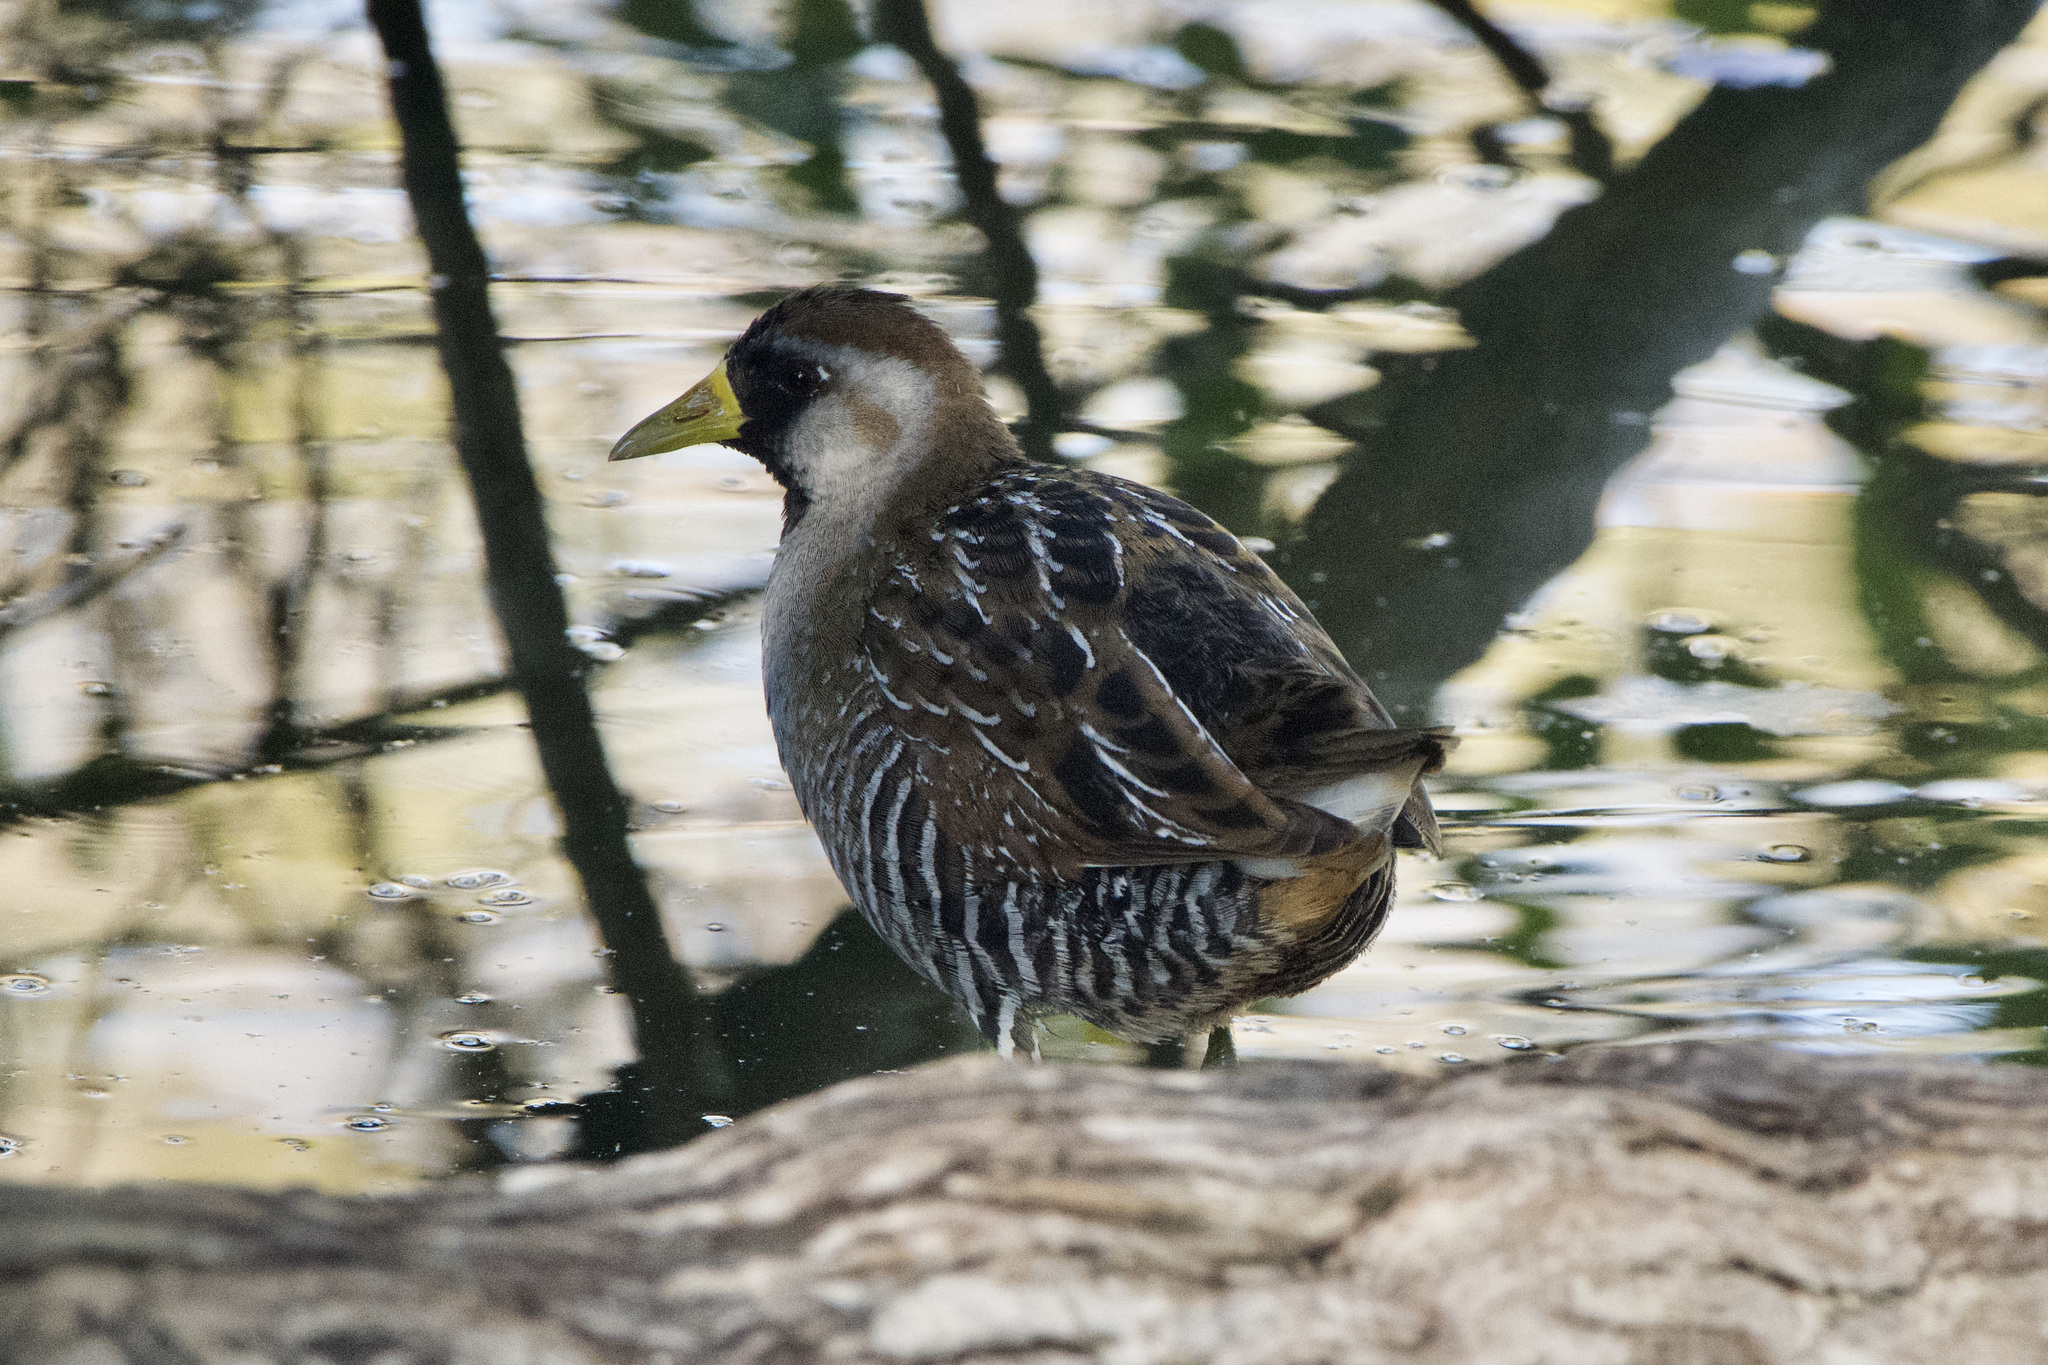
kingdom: Animalia
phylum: Chordata
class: Aves
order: Gruiformes
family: Rallidae
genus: Porzana
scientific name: Porzana carolina
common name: Sora
